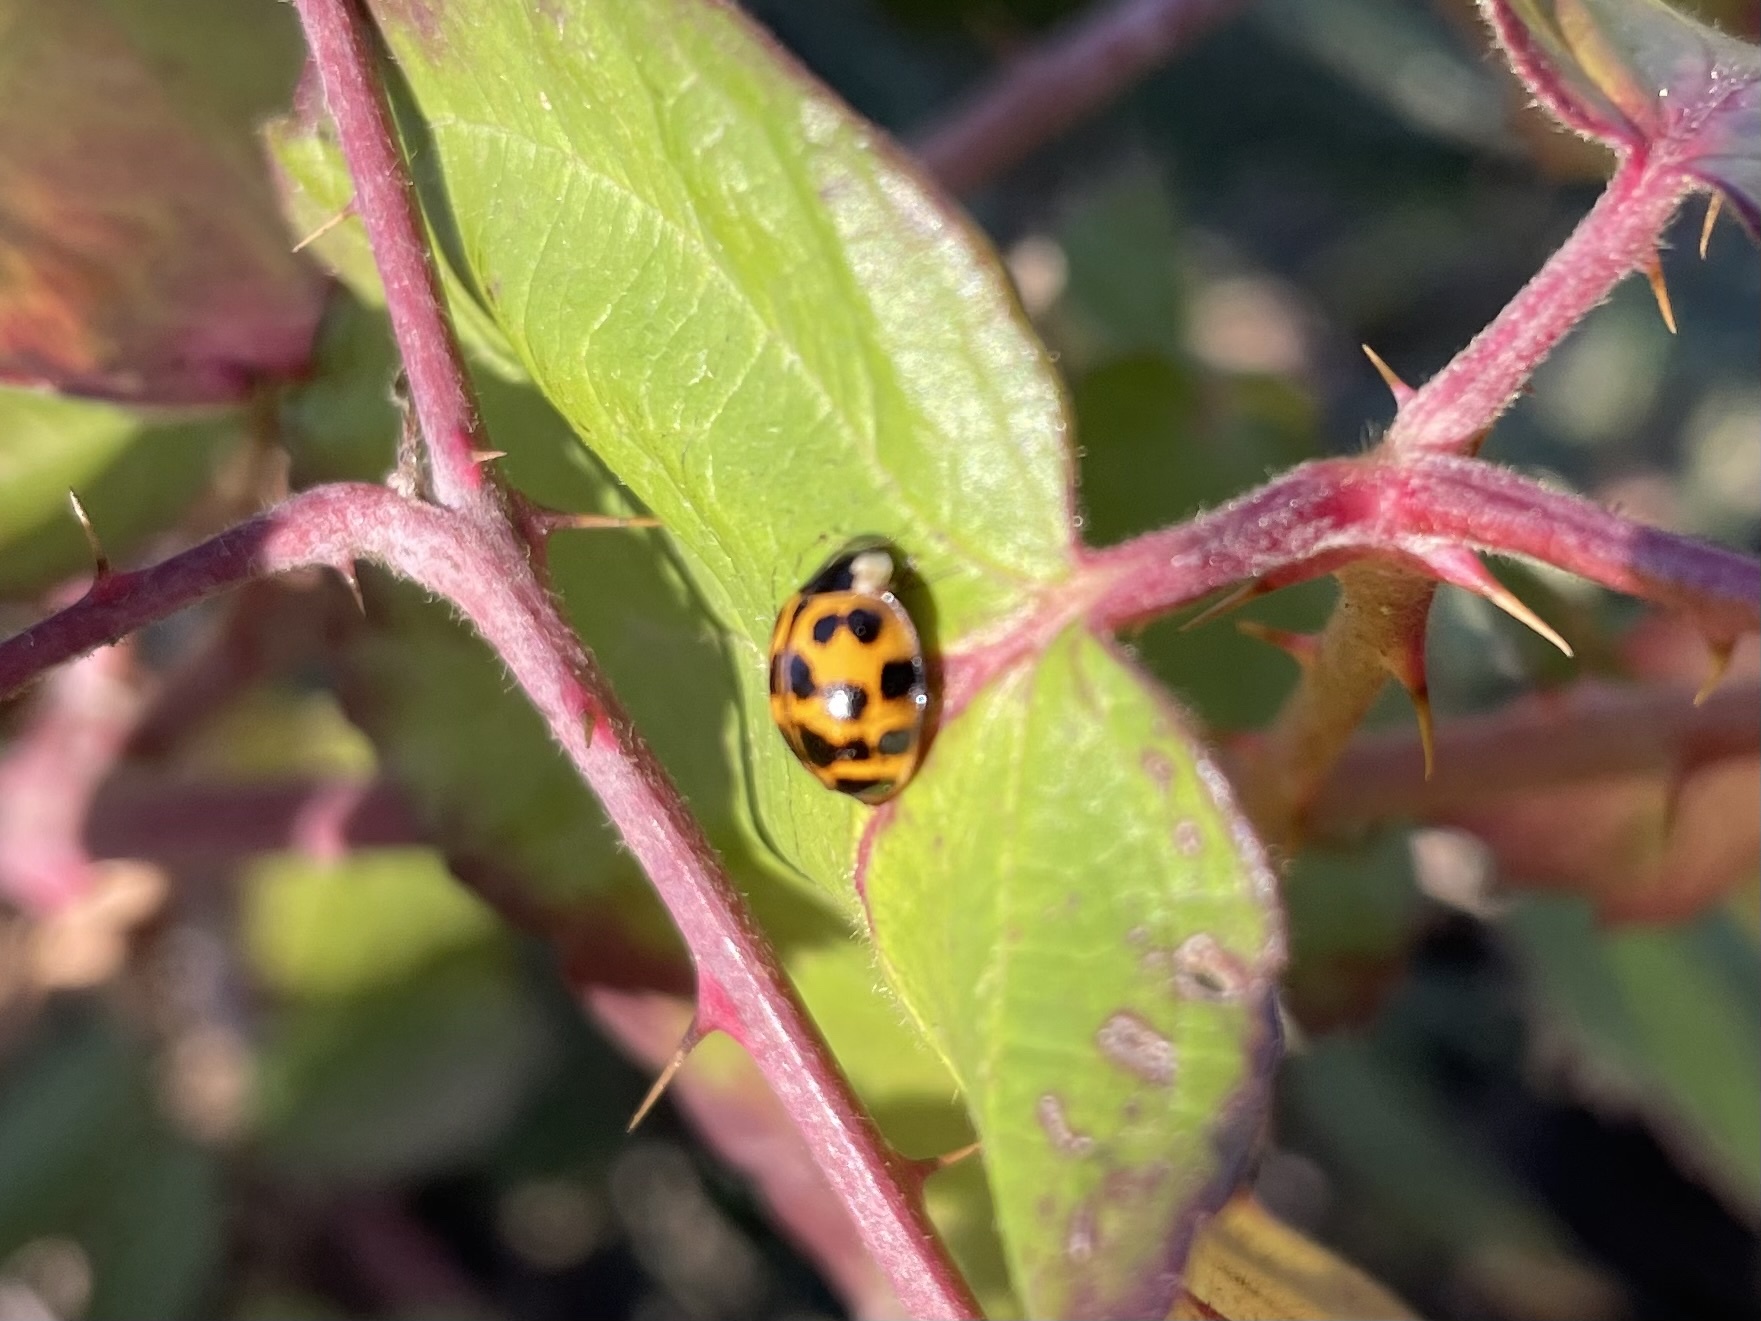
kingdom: Animalia
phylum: Arthropoda
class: Insecta
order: Coleoptera
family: Coccinellidae
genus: Harmonia
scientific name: Harmonia axyridis
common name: Harlequin ladybird
